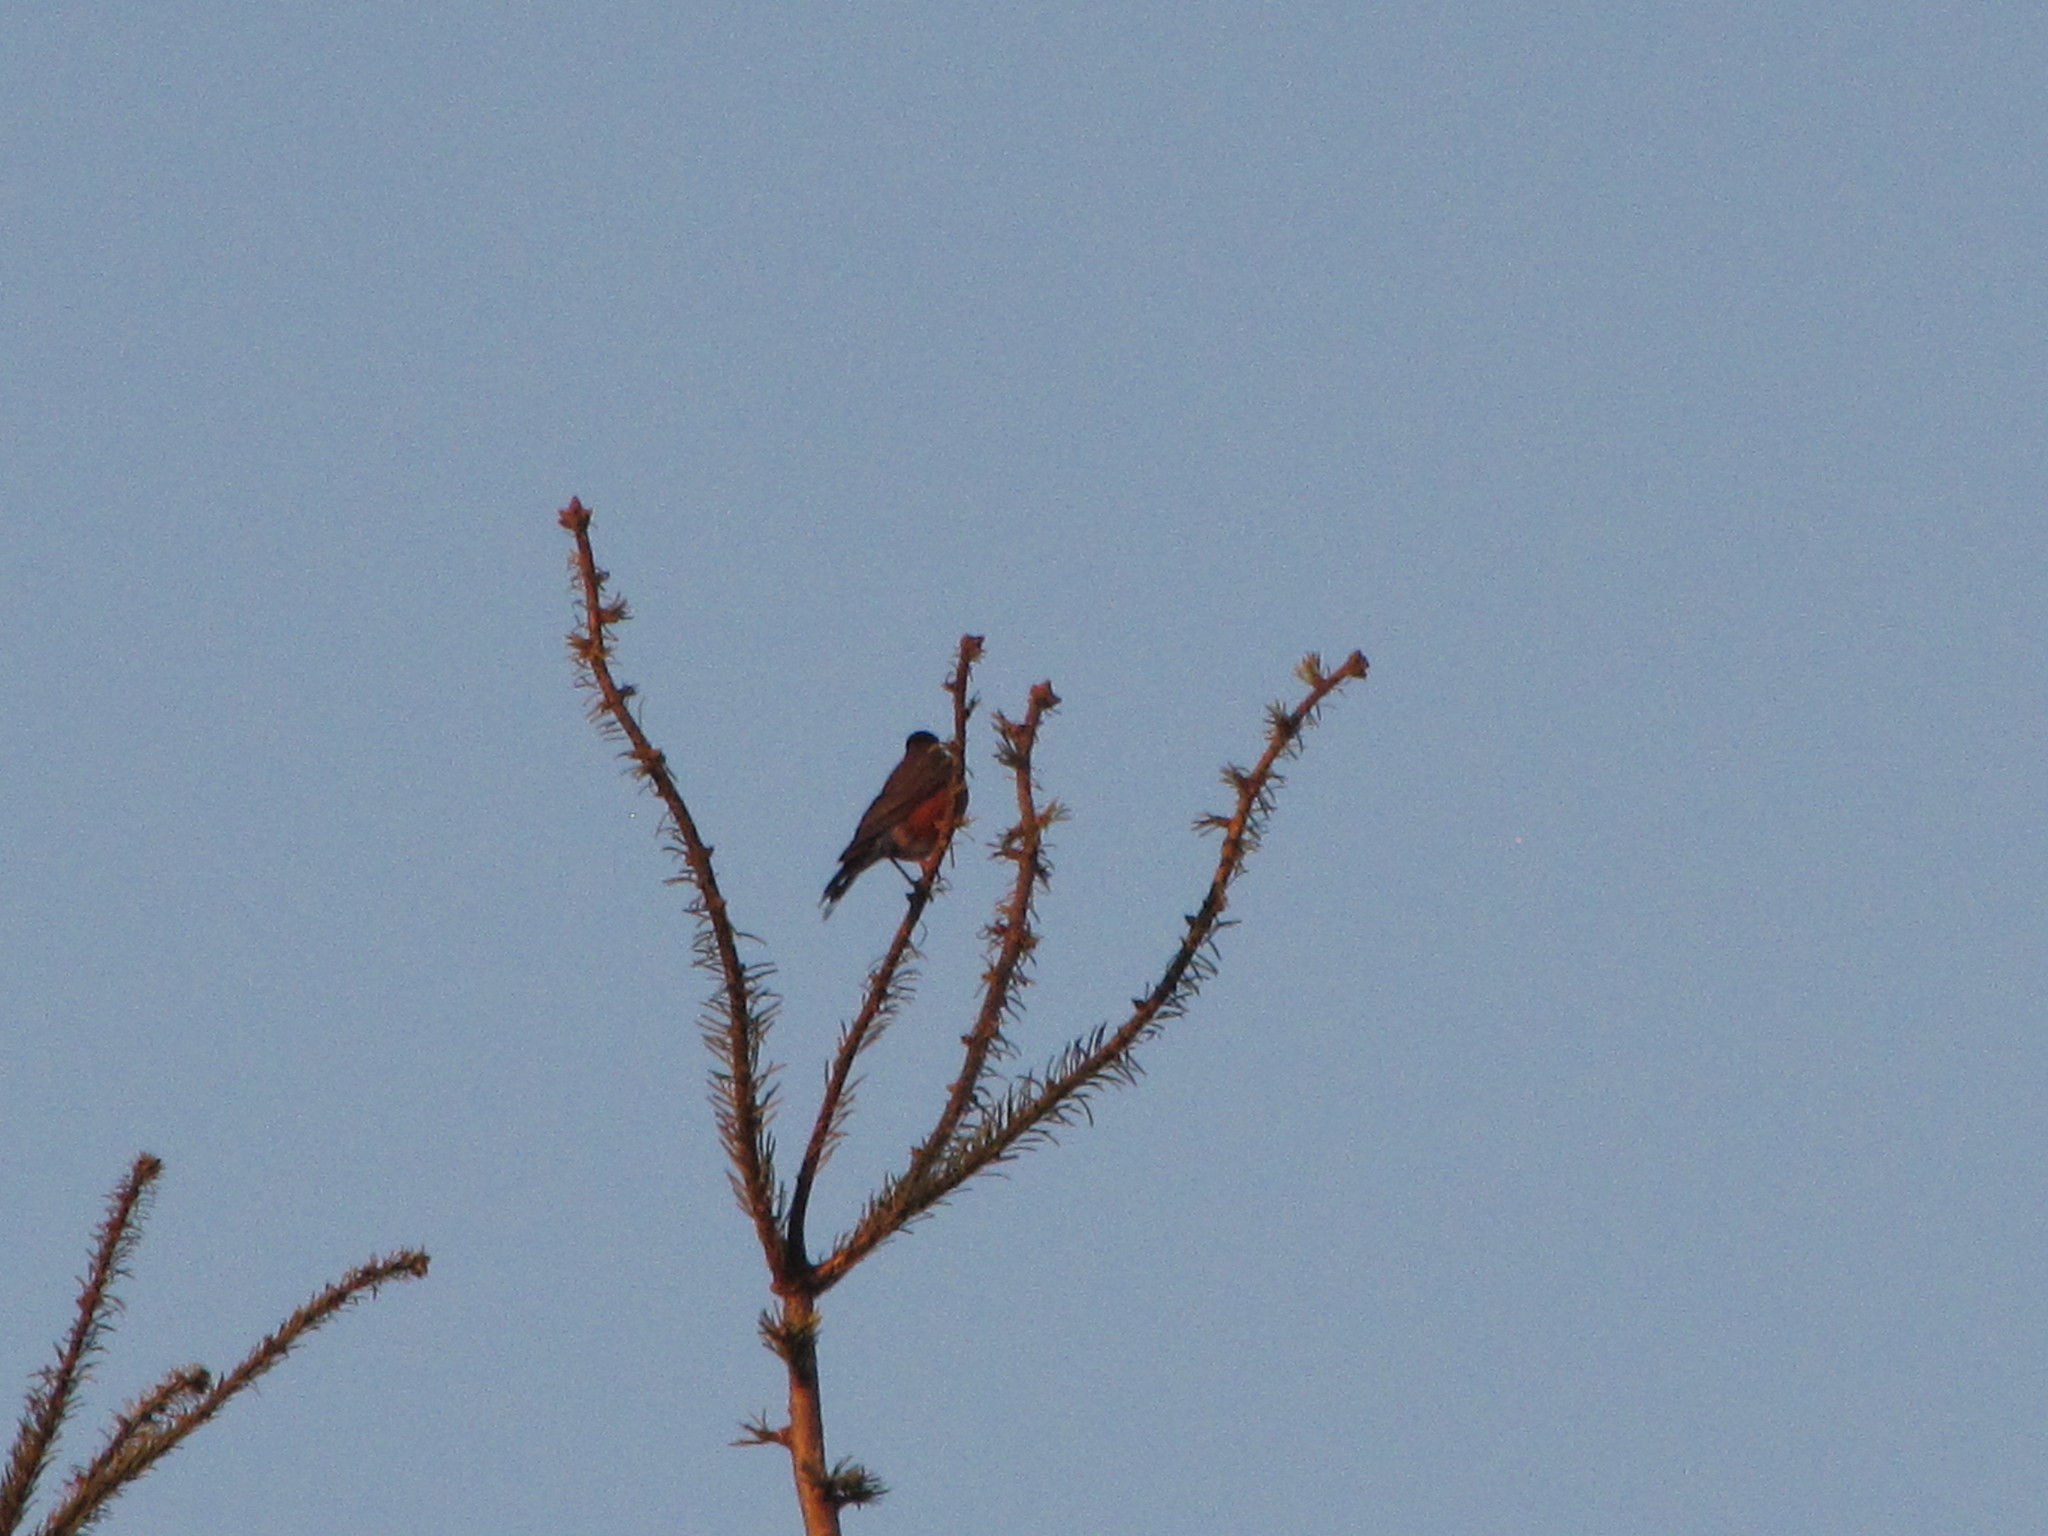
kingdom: Animalia
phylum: Chordata
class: Aves
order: Passeriformes
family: Turdidae
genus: Turdus
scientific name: Turdus migratorius
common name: American robin
